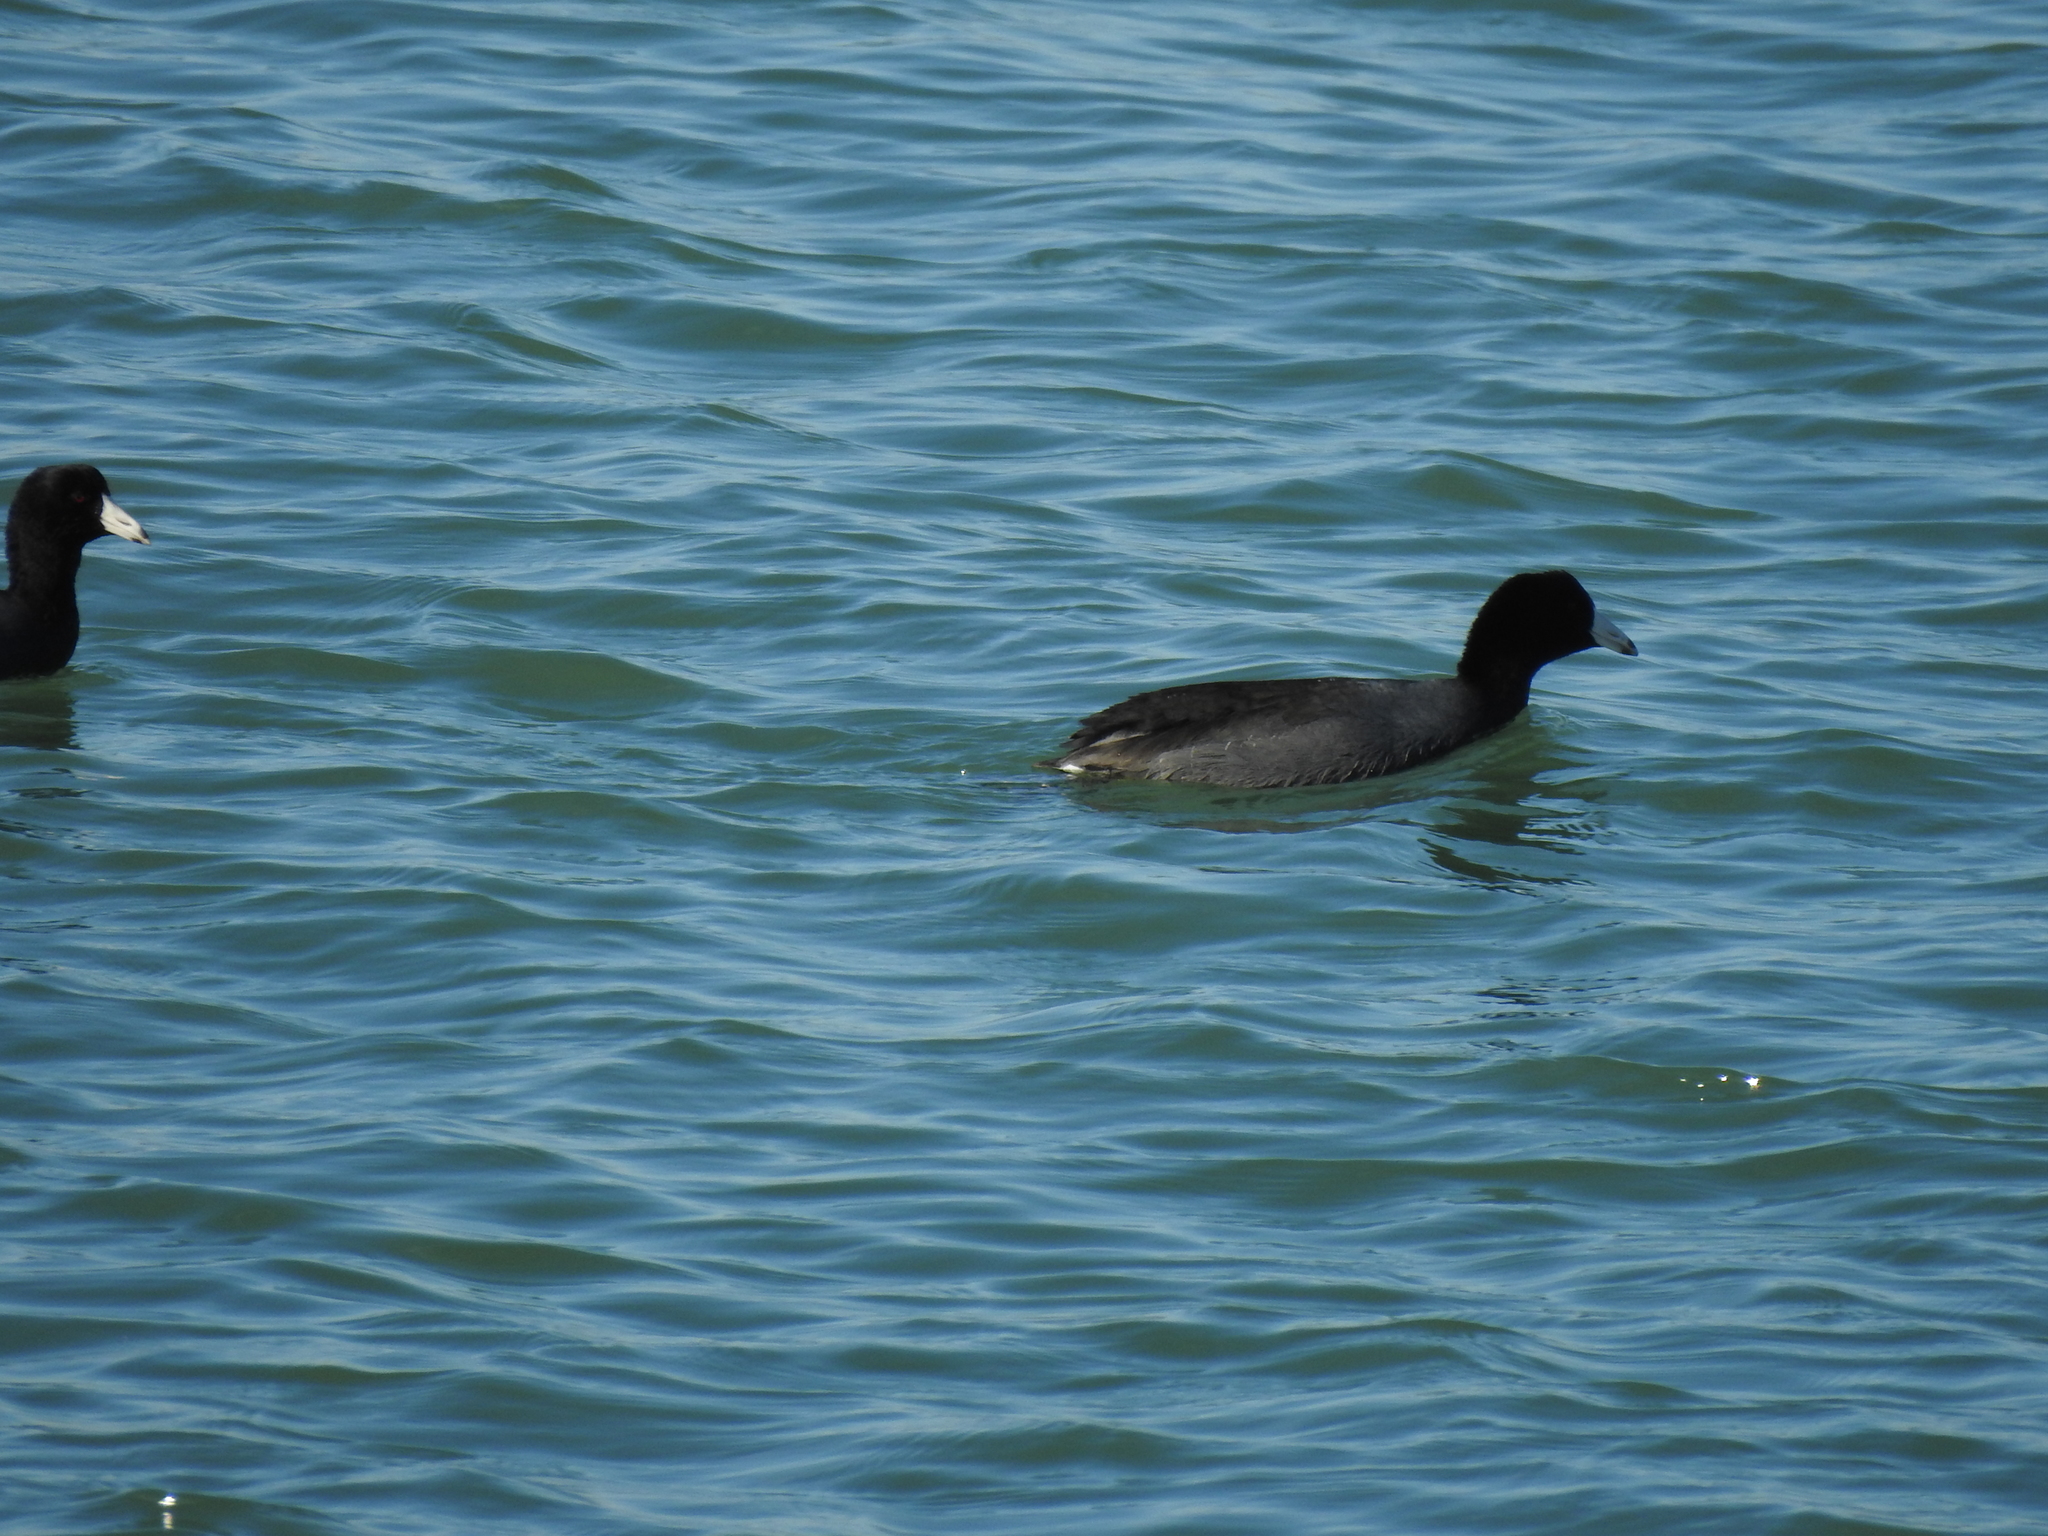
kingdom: Animalia
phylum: Chordata
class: Aves
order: Gruiformes
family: Rallidae
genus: Fulica
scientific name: Fulica americana
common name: American coot
